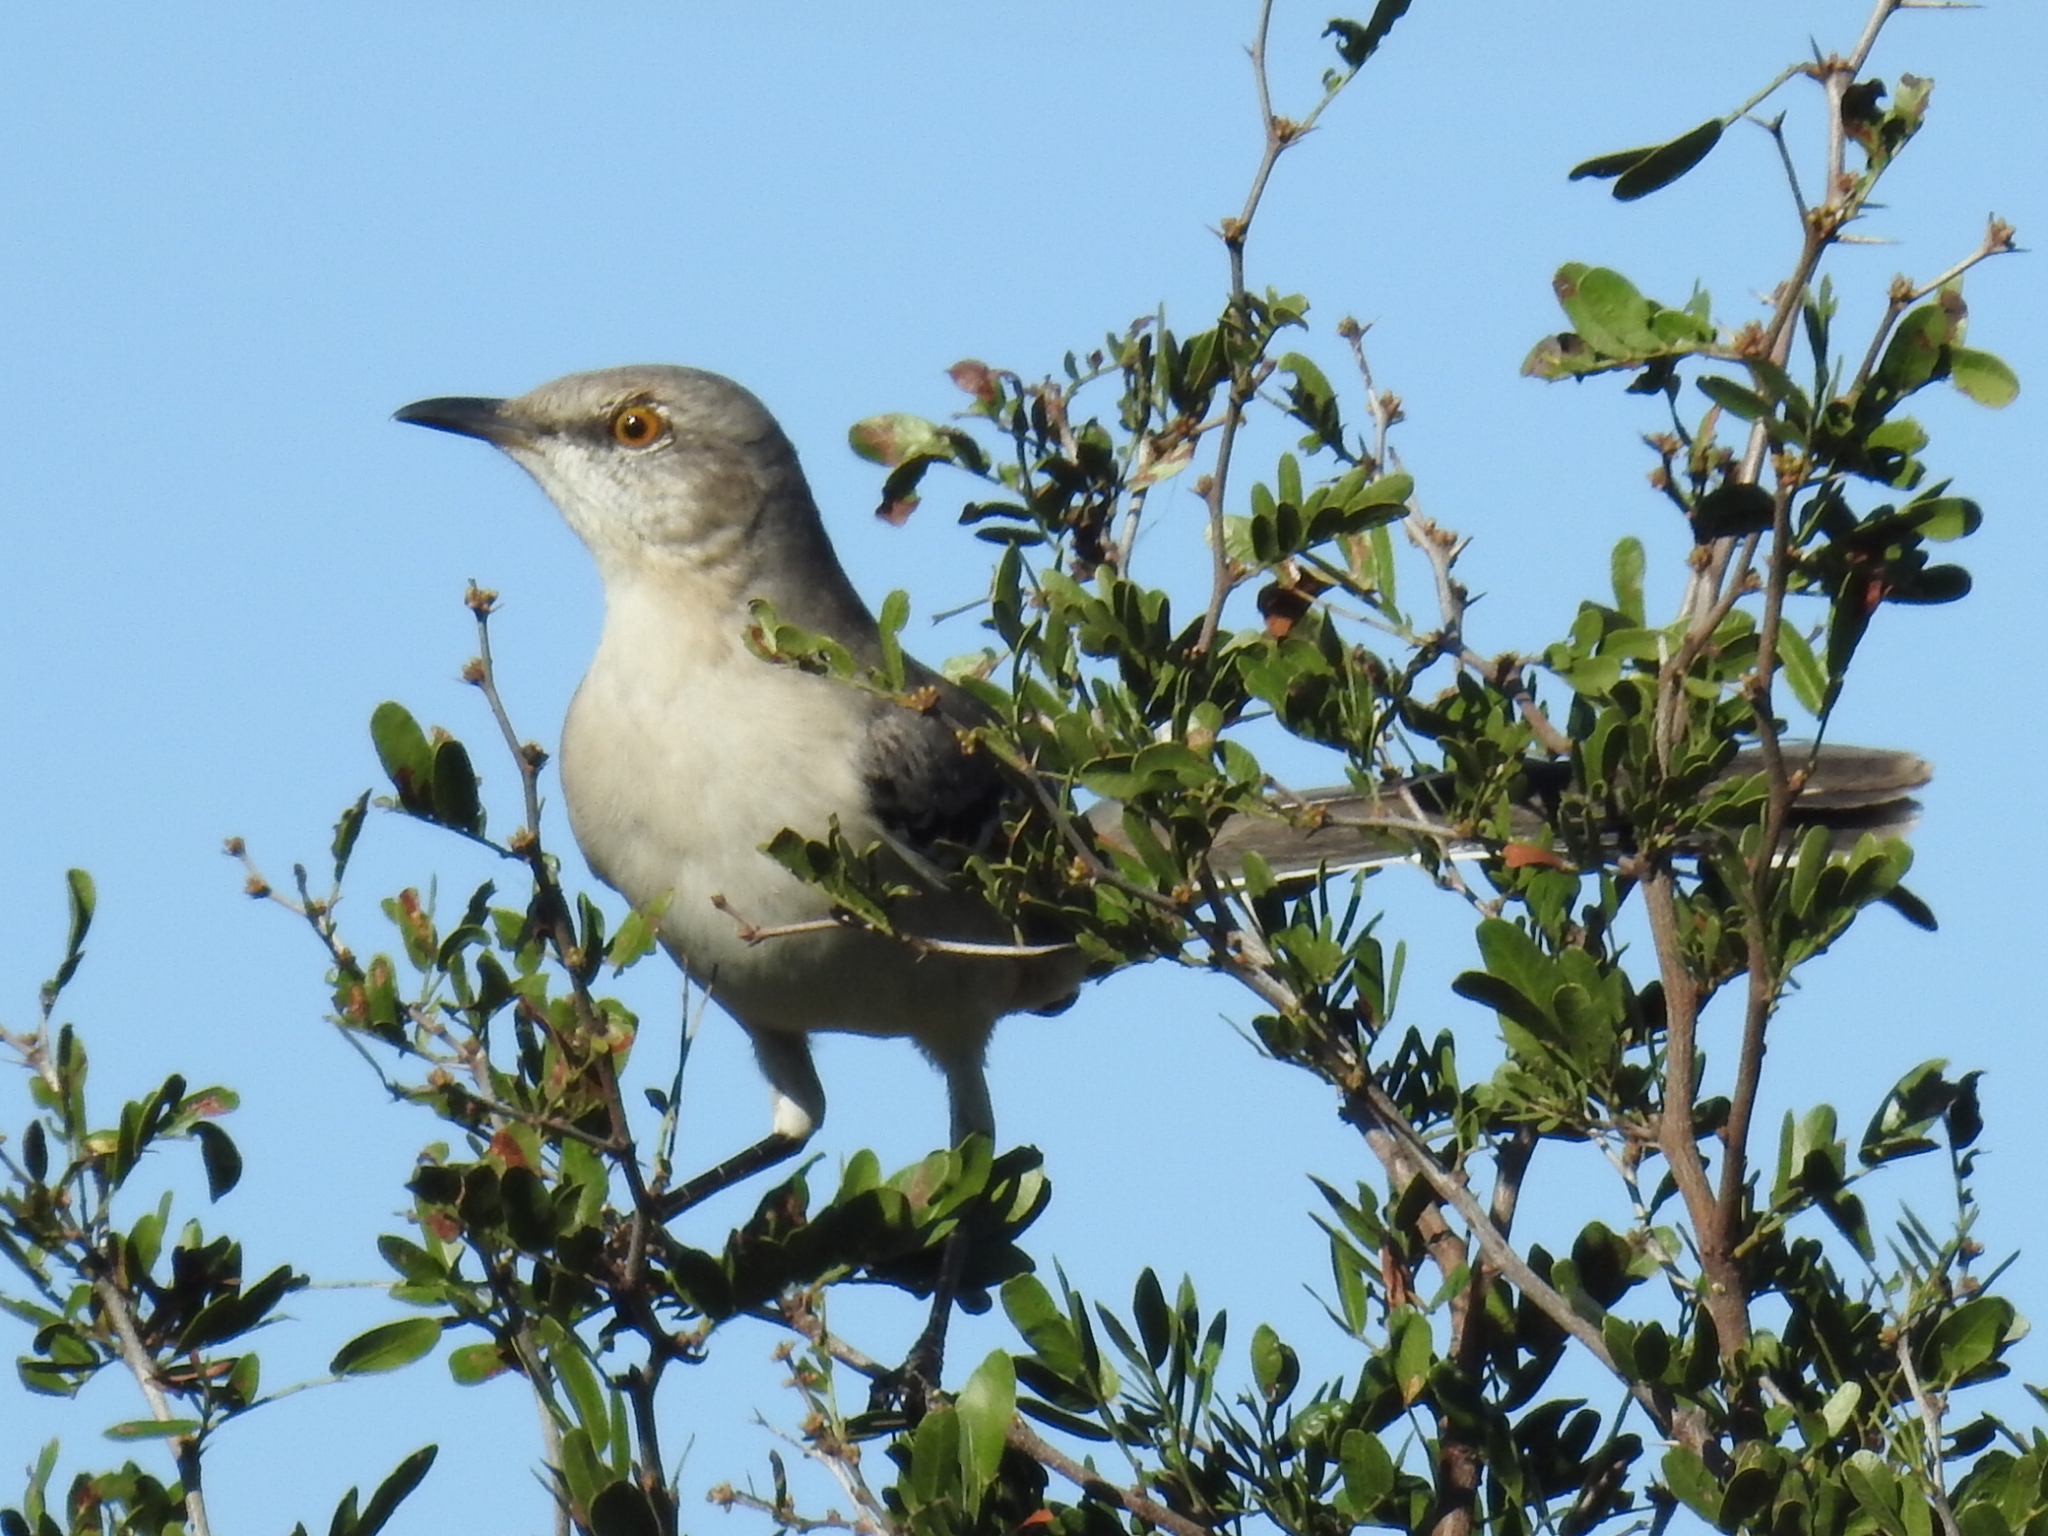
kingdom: Animalia
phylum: Chordata
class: Aves
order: Passeriformes
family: Mimidae
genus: Mimus
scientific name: Mimus polyglottos
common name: Northern mockingbird
